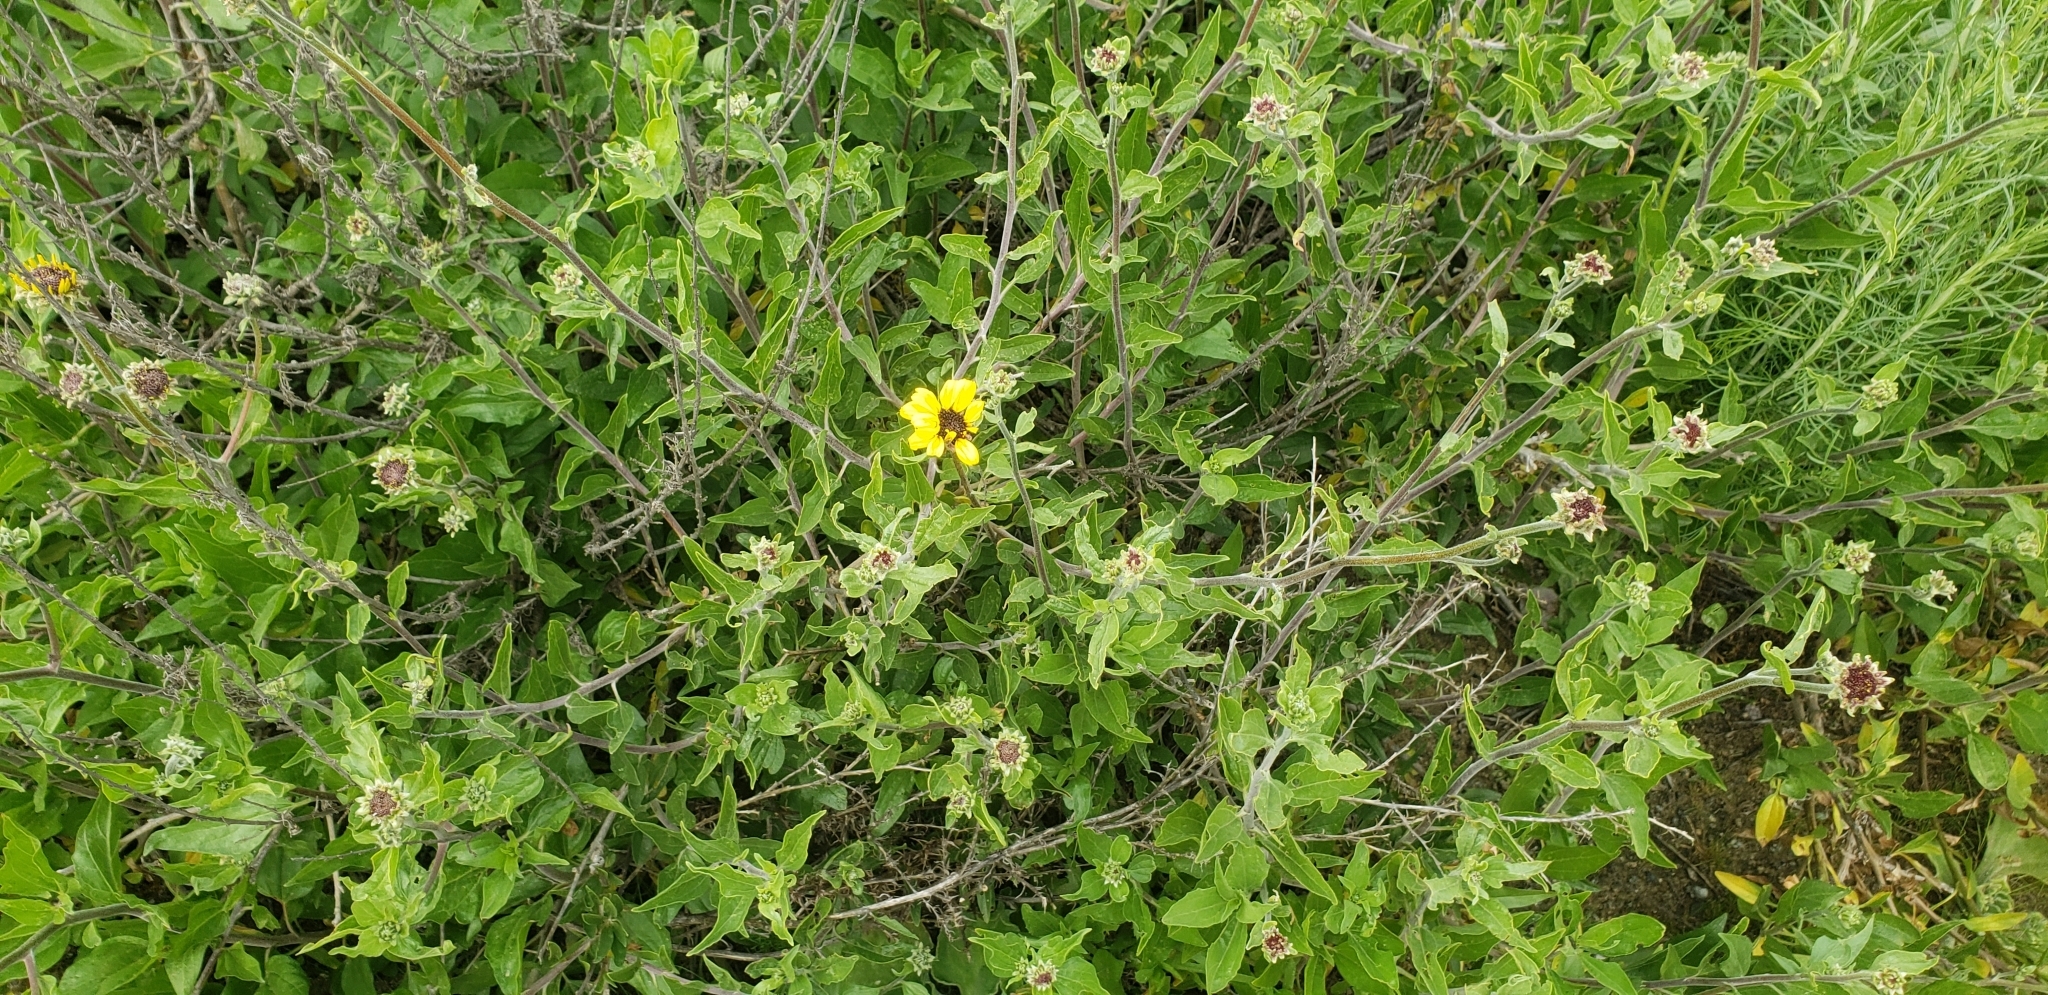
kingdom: Plantae
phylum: Tracheophyta
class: Magnoliopsida
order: Asterales
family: Asteraceae
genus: Encelia
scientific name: Encelia californica
